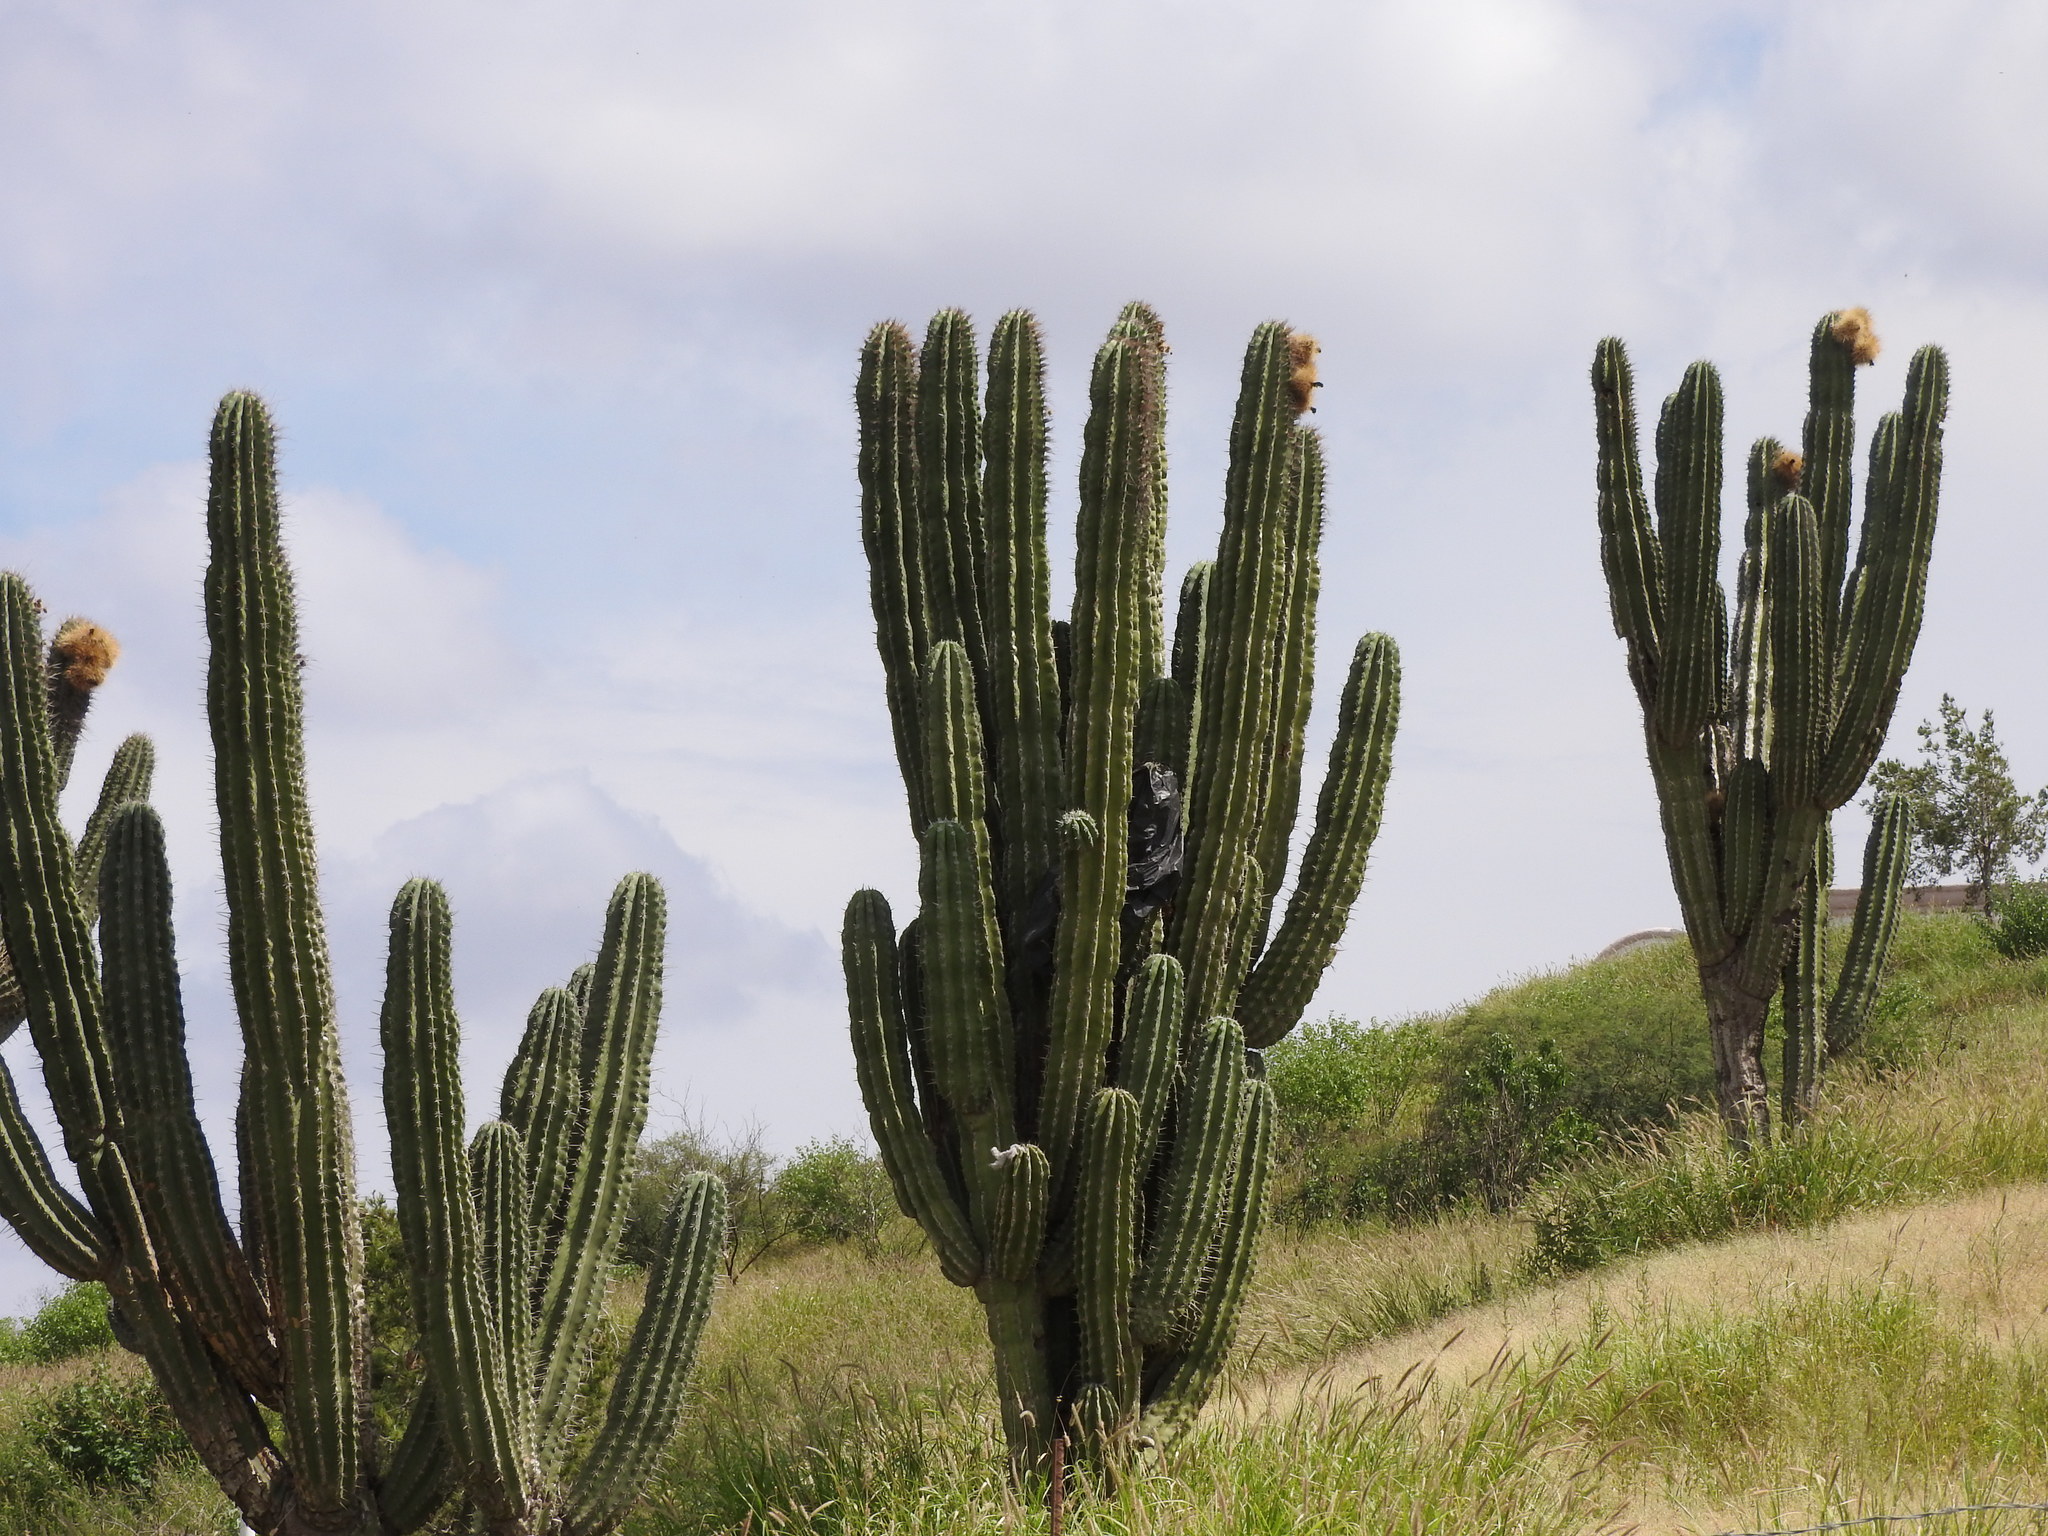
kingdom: Plantae
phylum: Tracheophyta
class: Magnoliopsida
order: Caryophyllales
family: Cactaceae
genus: Pachycereus
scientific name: Pachycereus pecten-aboriginum
